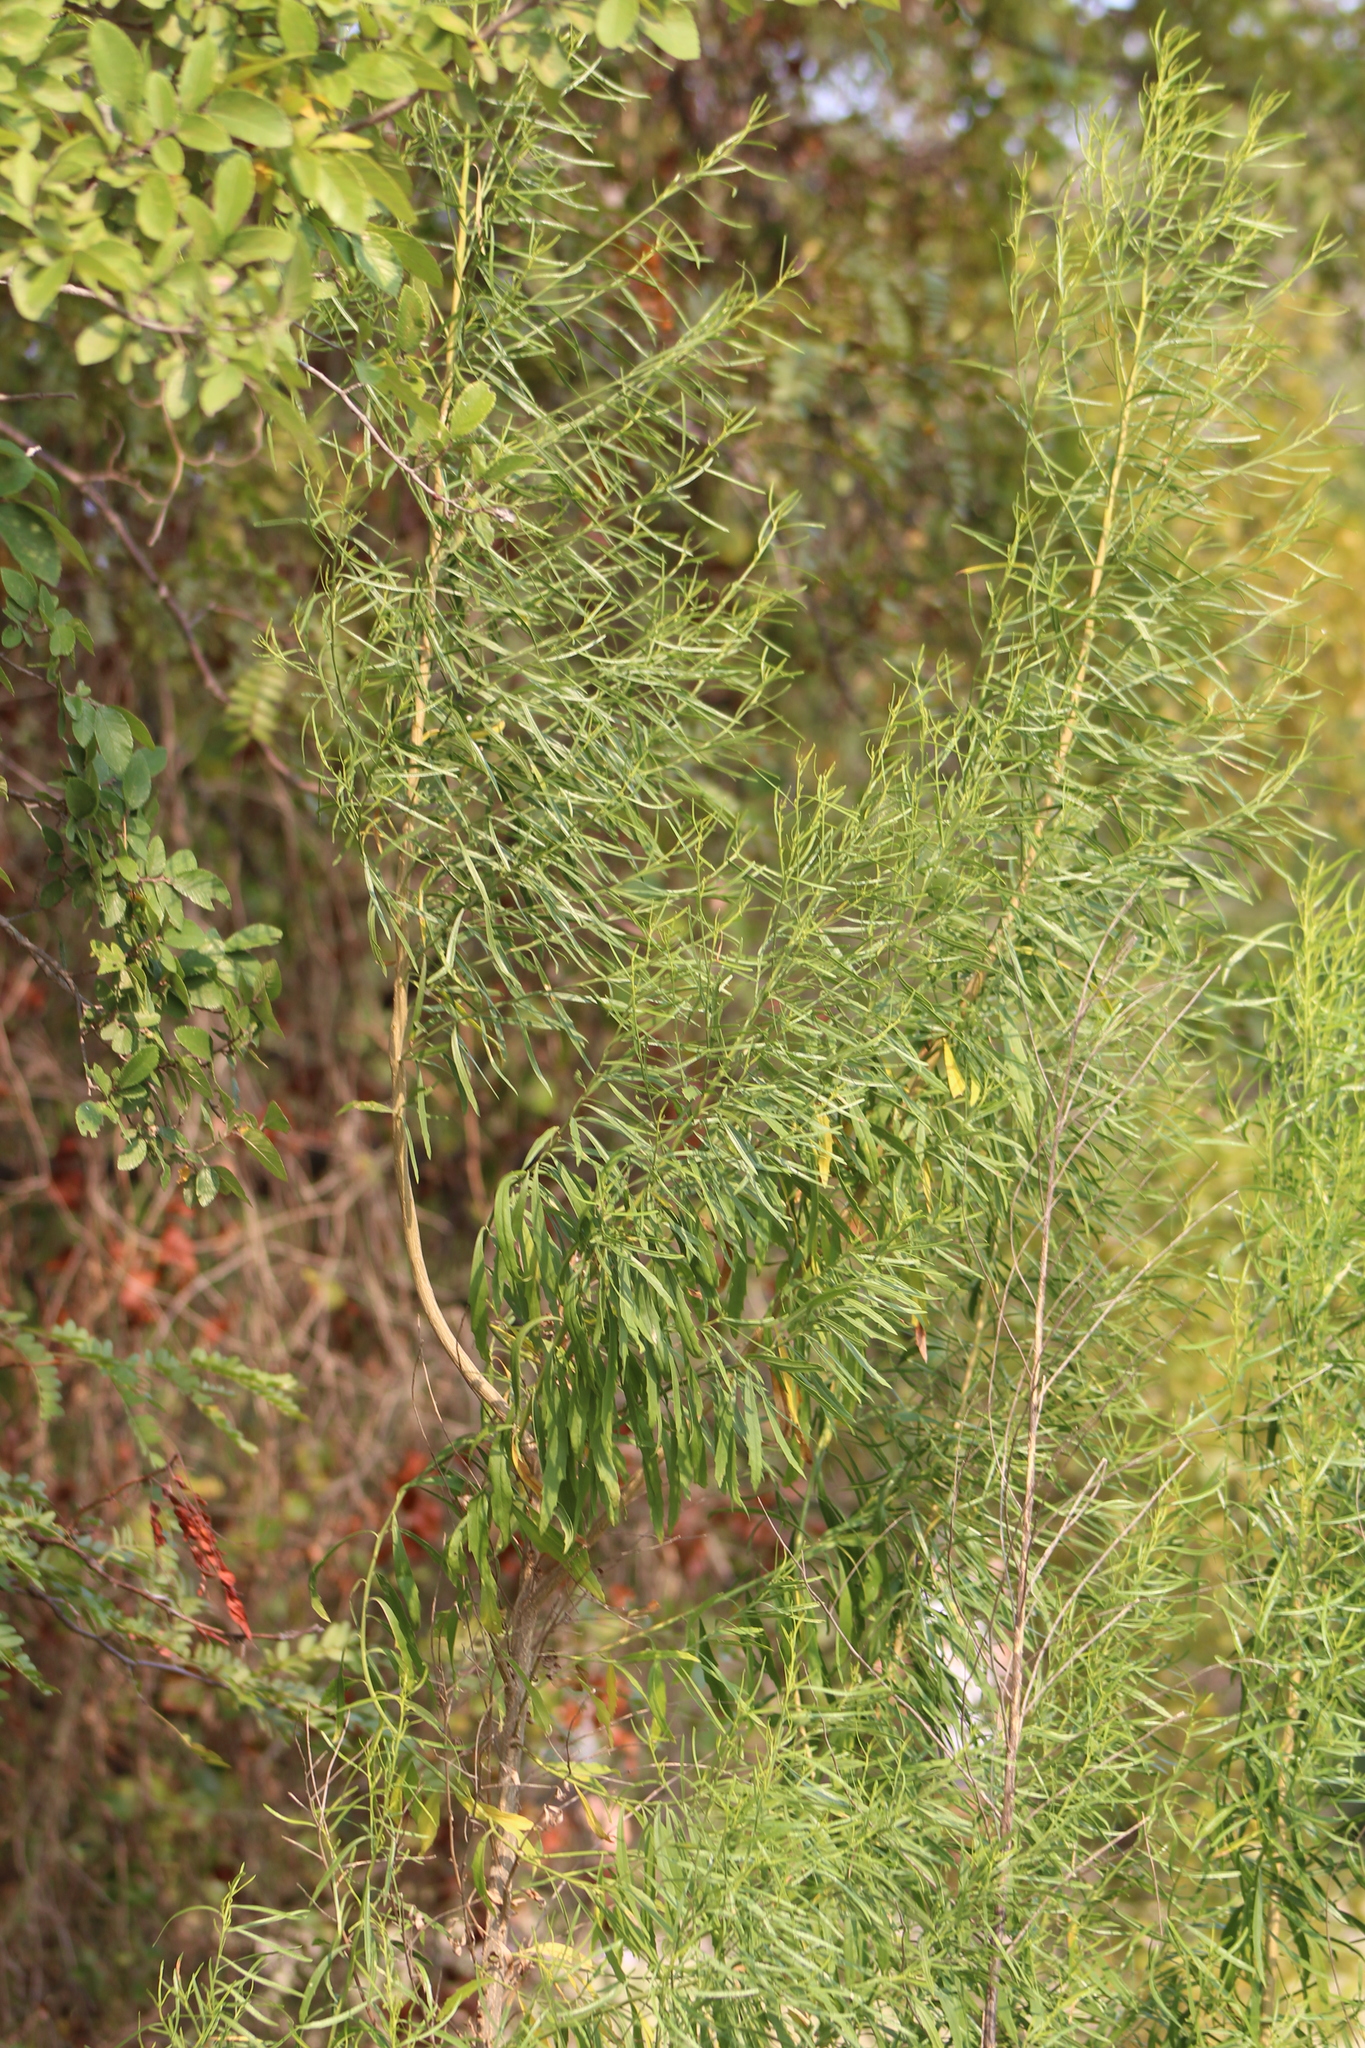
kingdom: Plantae
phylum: Tracheophyta
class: Magnoliopsida
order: Asterales
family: Asteraceae
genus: Baccharis
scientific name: Baccharis neglecta
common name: Roosevelt-weed
